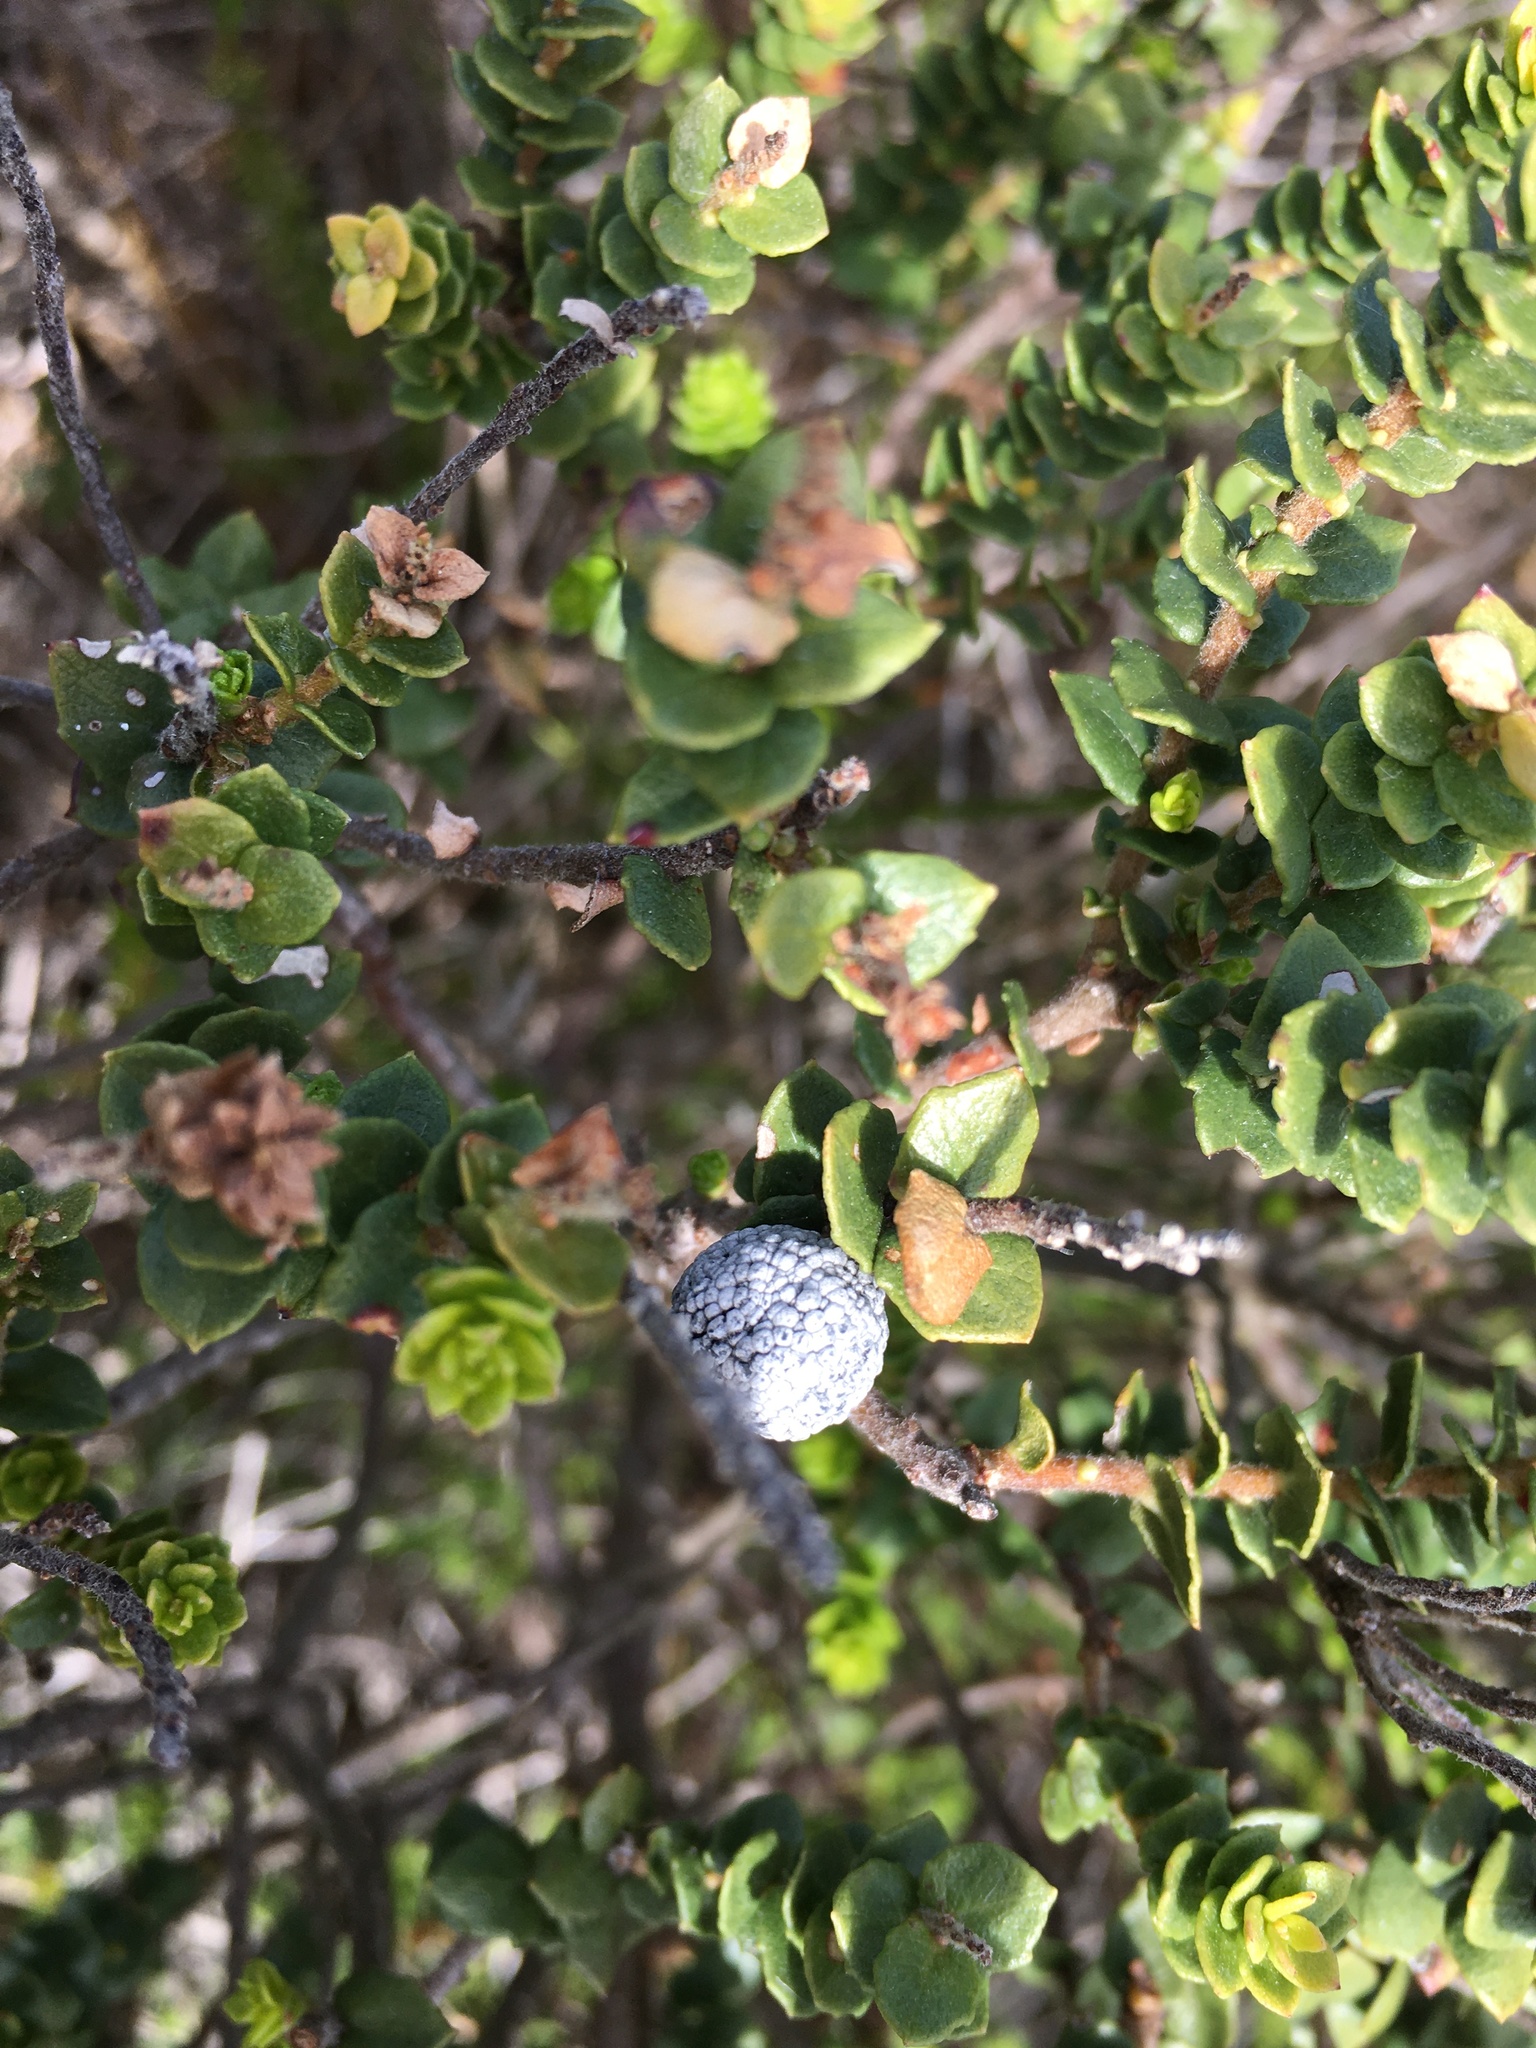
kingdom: Plantae
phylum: Tracheophyta
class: Magnoliopsida
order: Fagales
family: Myricaceae
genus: Morella
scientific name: Morella cordifolia
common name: Waxberry
